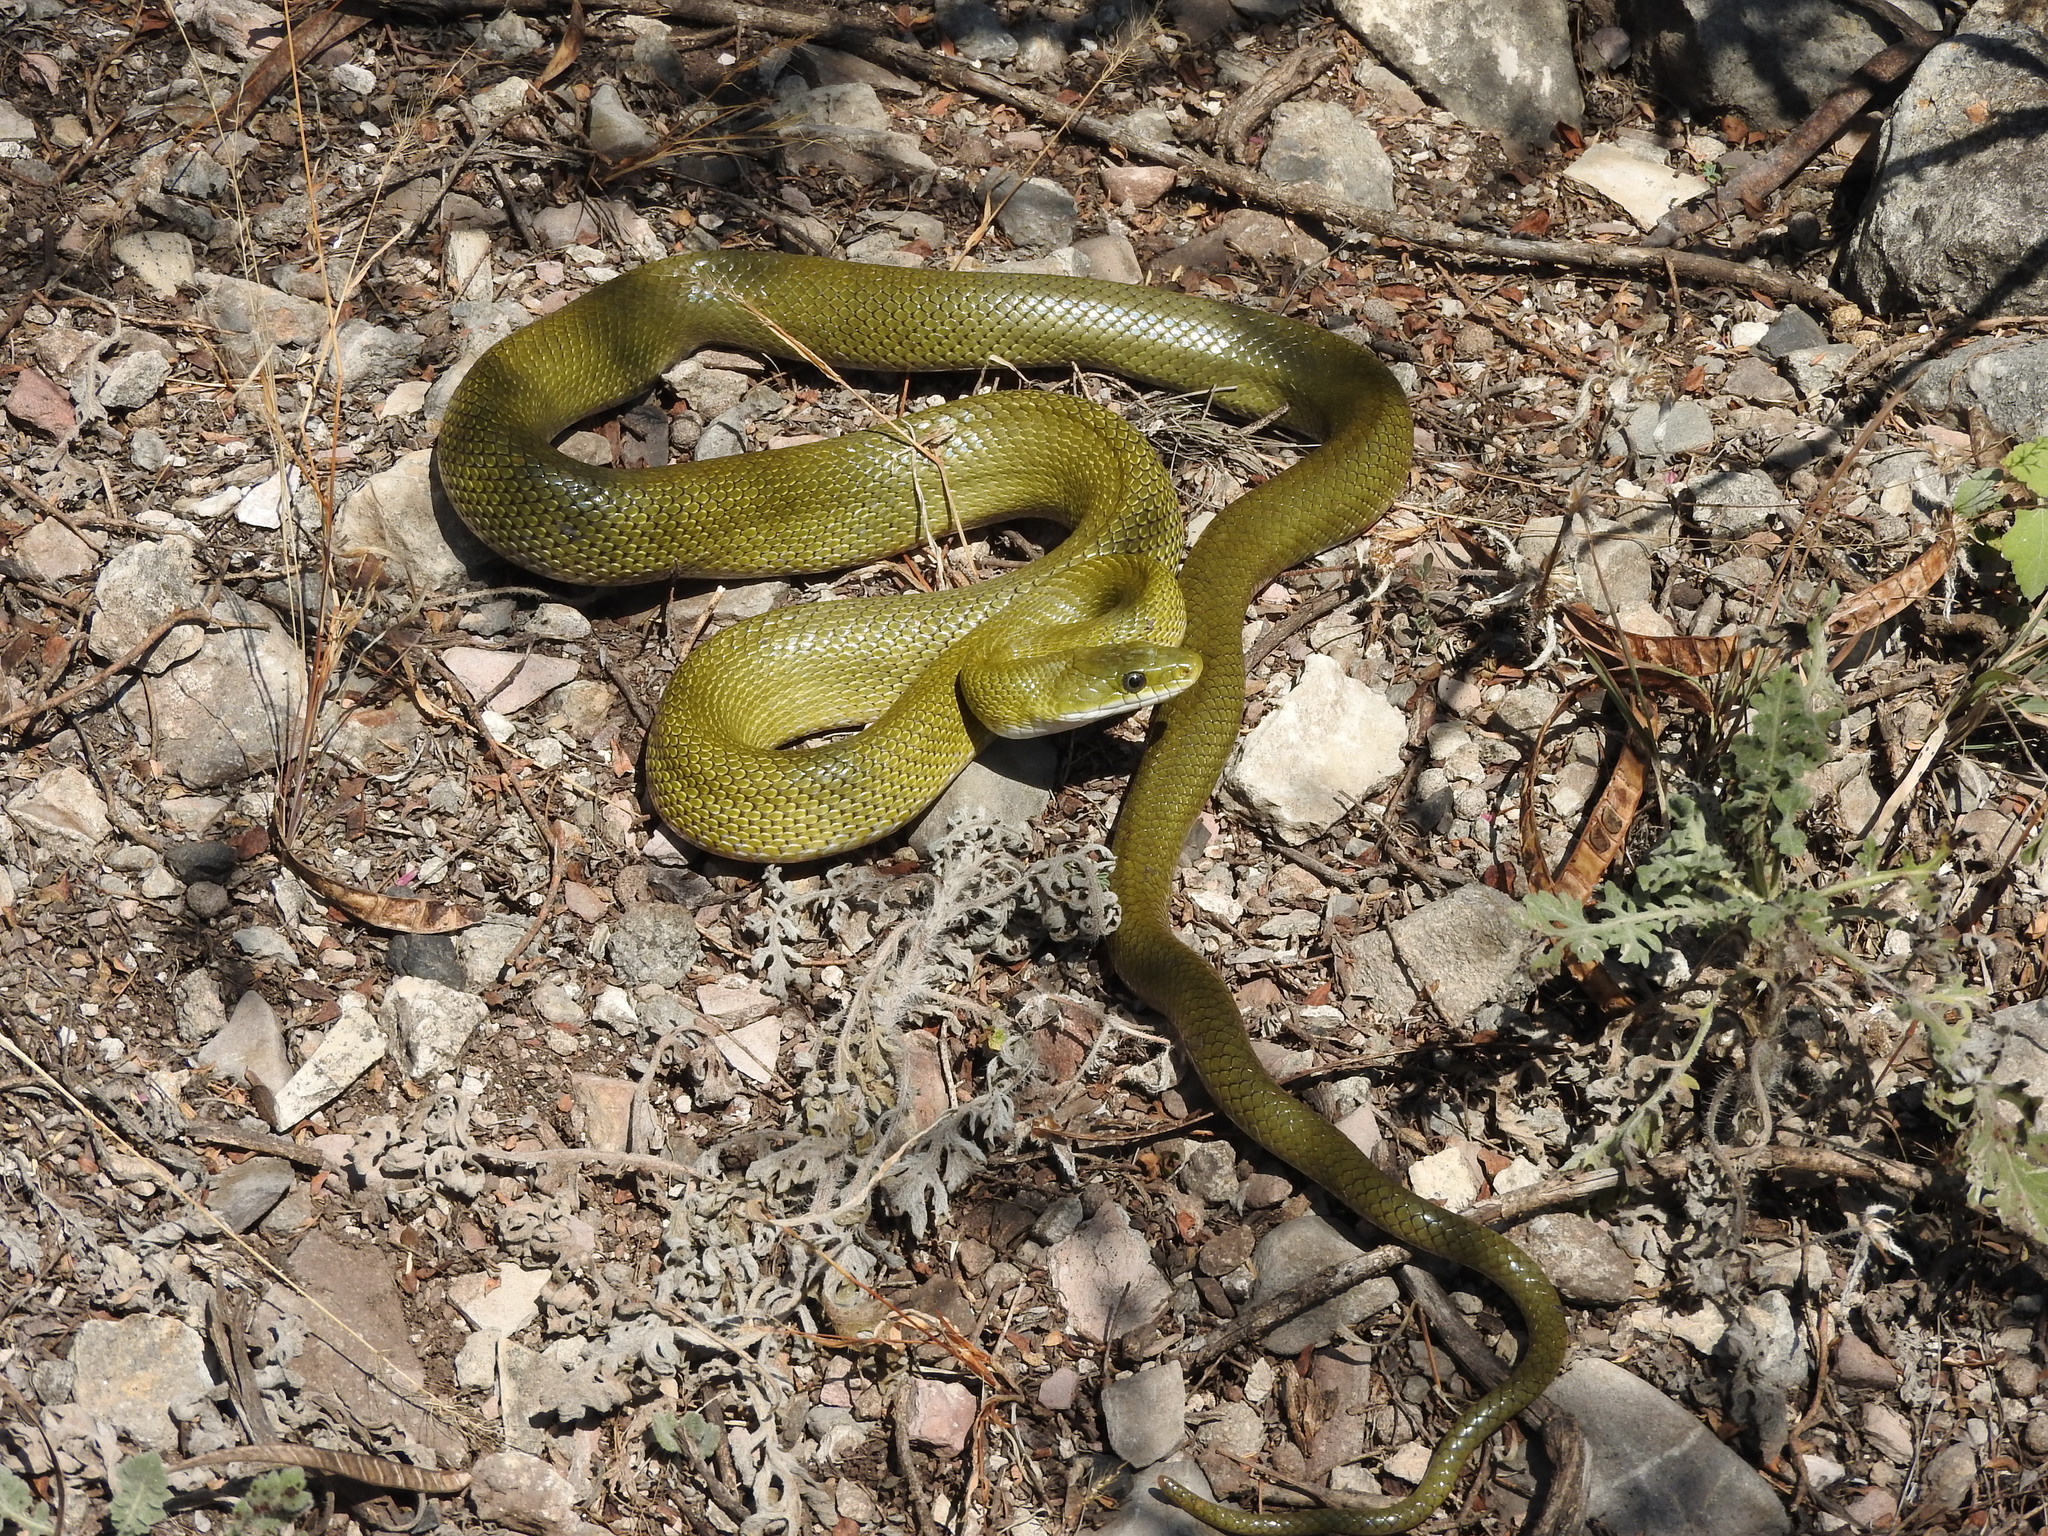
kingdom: Animalia
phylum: Chordata
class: Squamata
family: Colubridae
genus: Senticolis
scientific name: Senticolis triaspis
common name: Green rat snake
